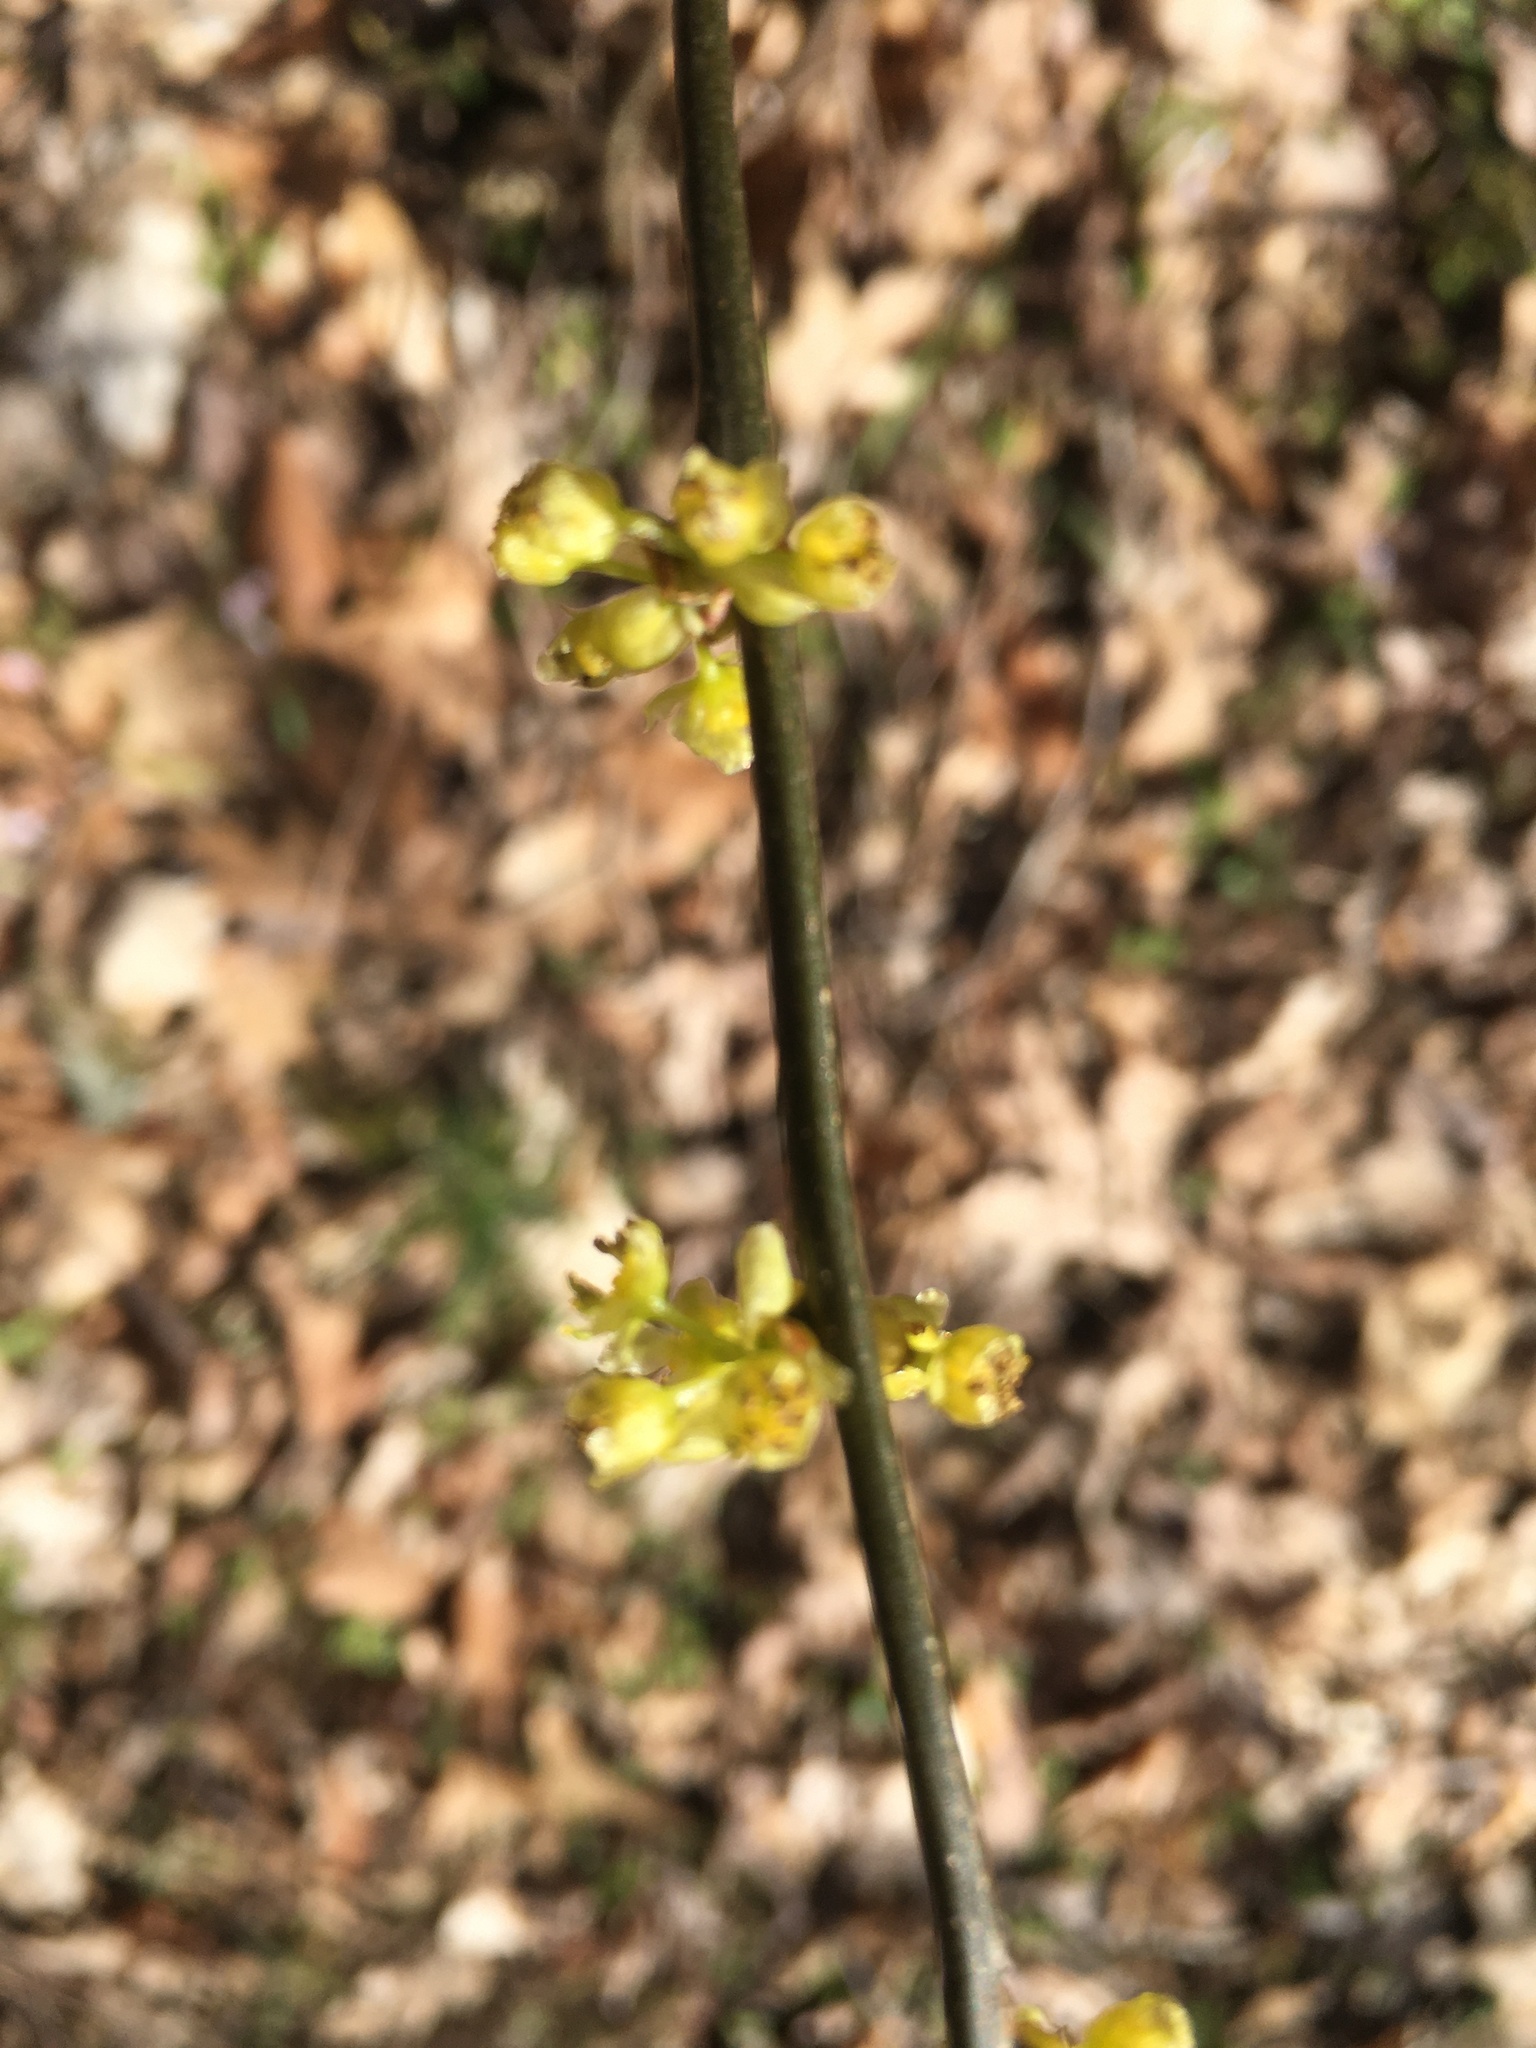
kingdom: Plantae
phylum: Tracheophyta
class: Magnoliopsida
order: Laurales
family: Lauraceae
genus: Lindera
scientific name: Lindera benzoin
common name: Spicebush
